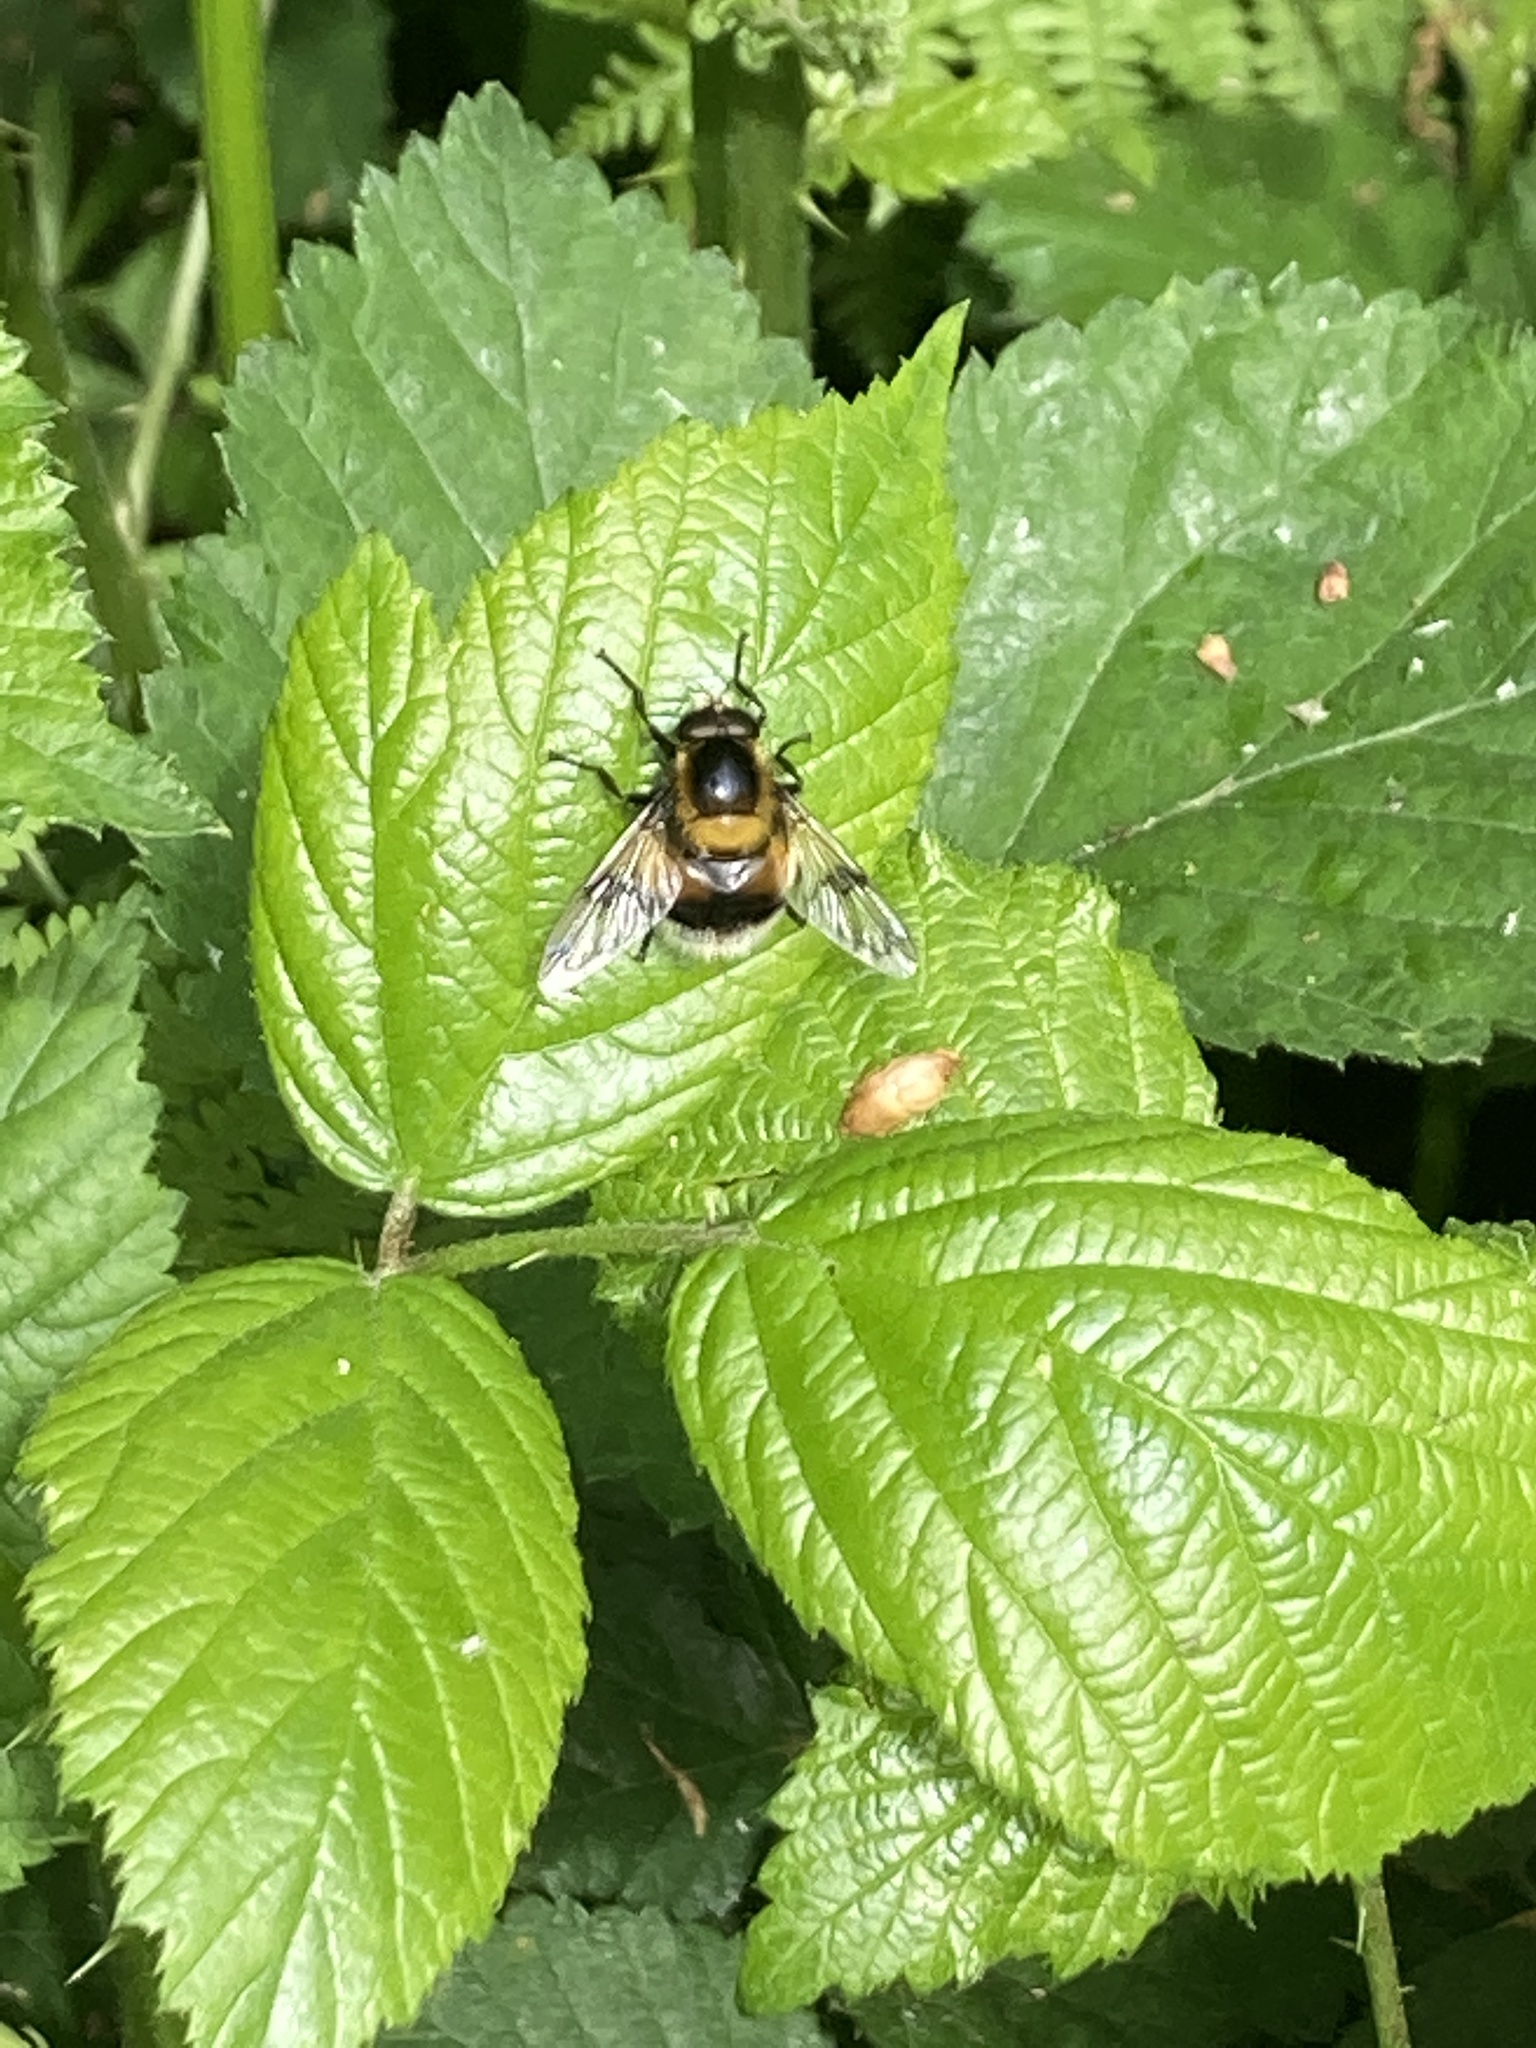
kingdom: Animalia
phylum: Arthropoda
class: Insecta
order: Diptera
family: Syrphidae
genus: Volucella
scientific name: Volucella bombylans
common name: Bumble bee hover fly
